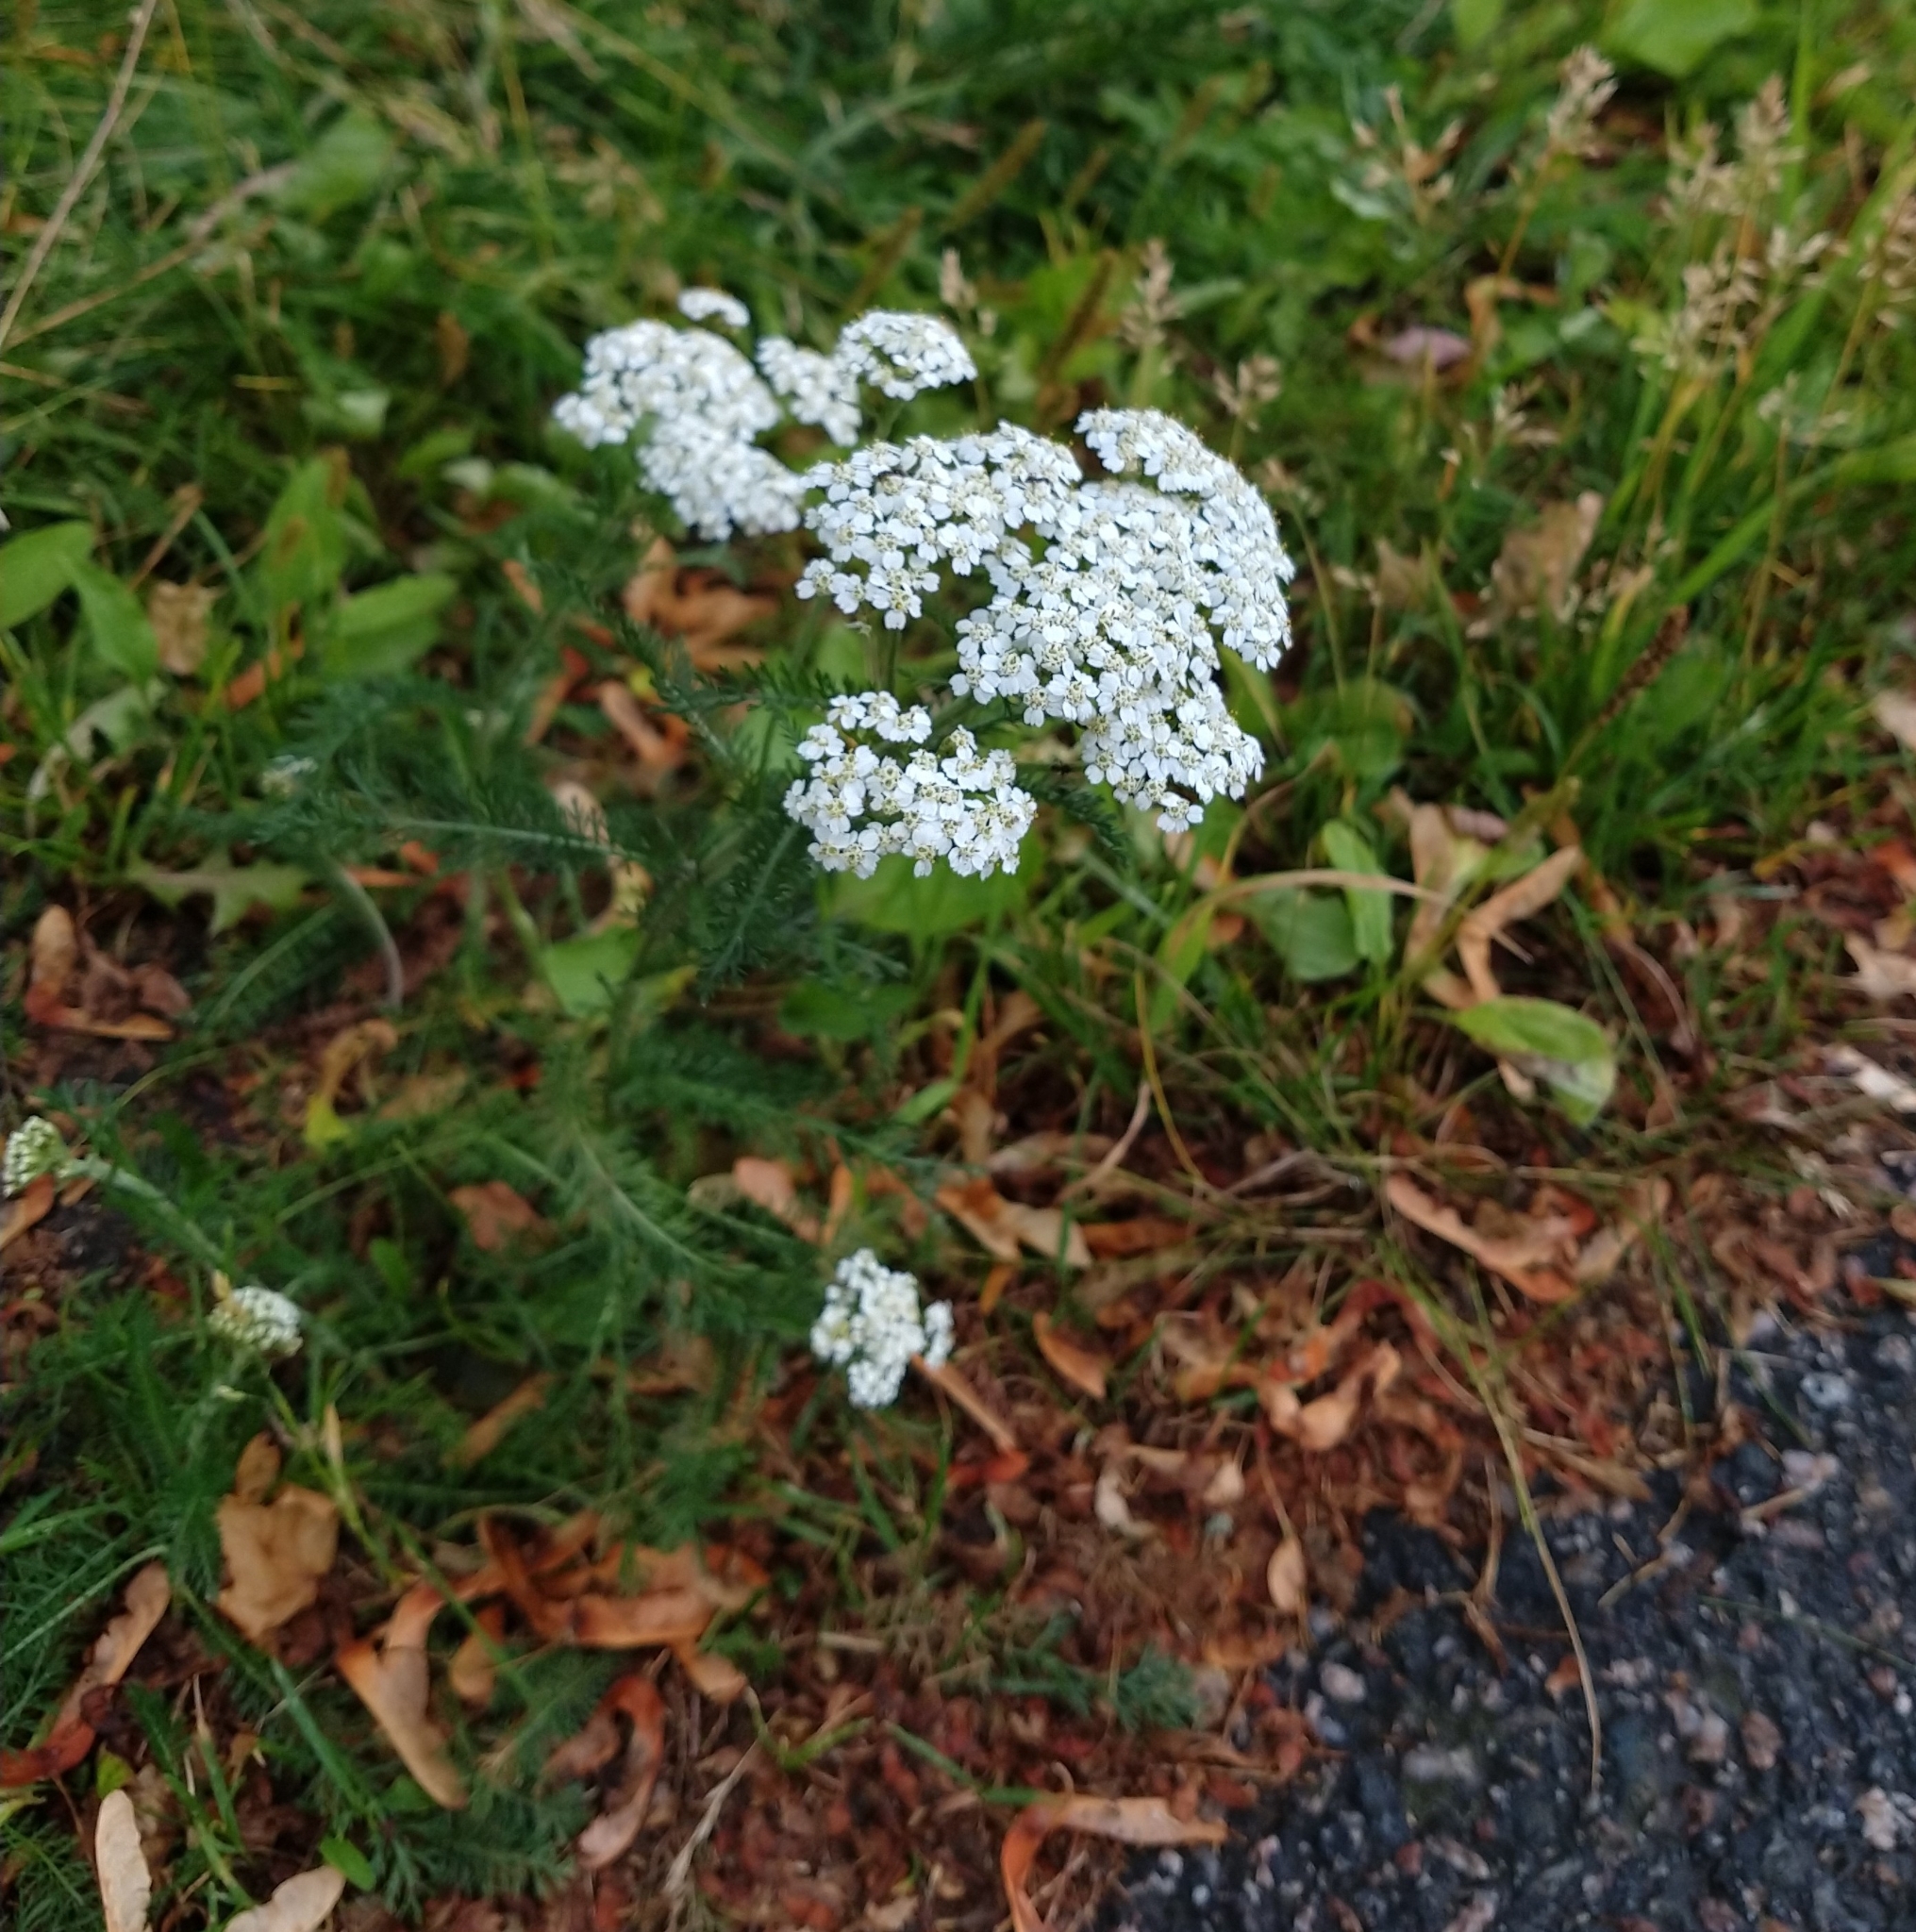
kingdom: Plantae
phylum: Tracheophyta
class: Magnoliopsida
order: Asterales
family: Asteraceae
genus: Achillea
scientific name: Achillea millefolium
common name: Yarrow
